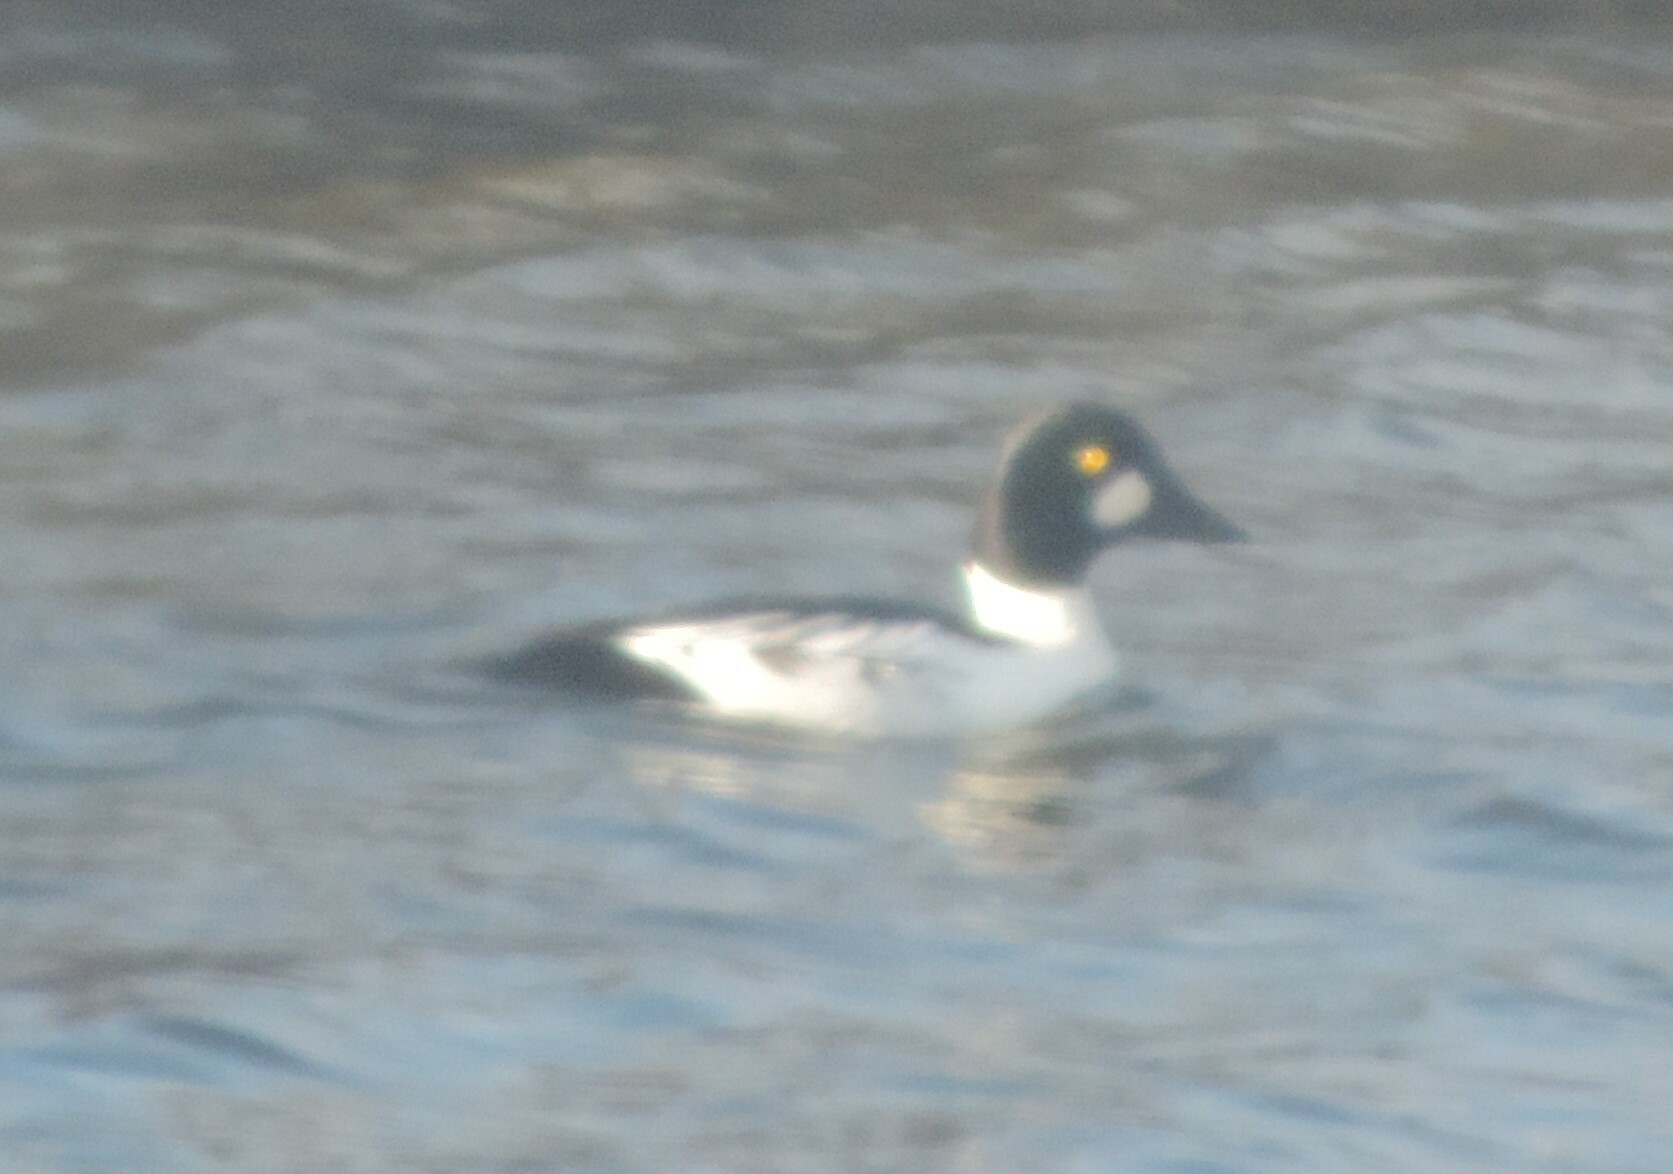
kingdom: Animalia
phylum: Chordata
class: Aves
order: Anseriformes
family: Anatidae
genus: Bucephala
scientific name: Bucephala clangula
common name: Common goldeneye
